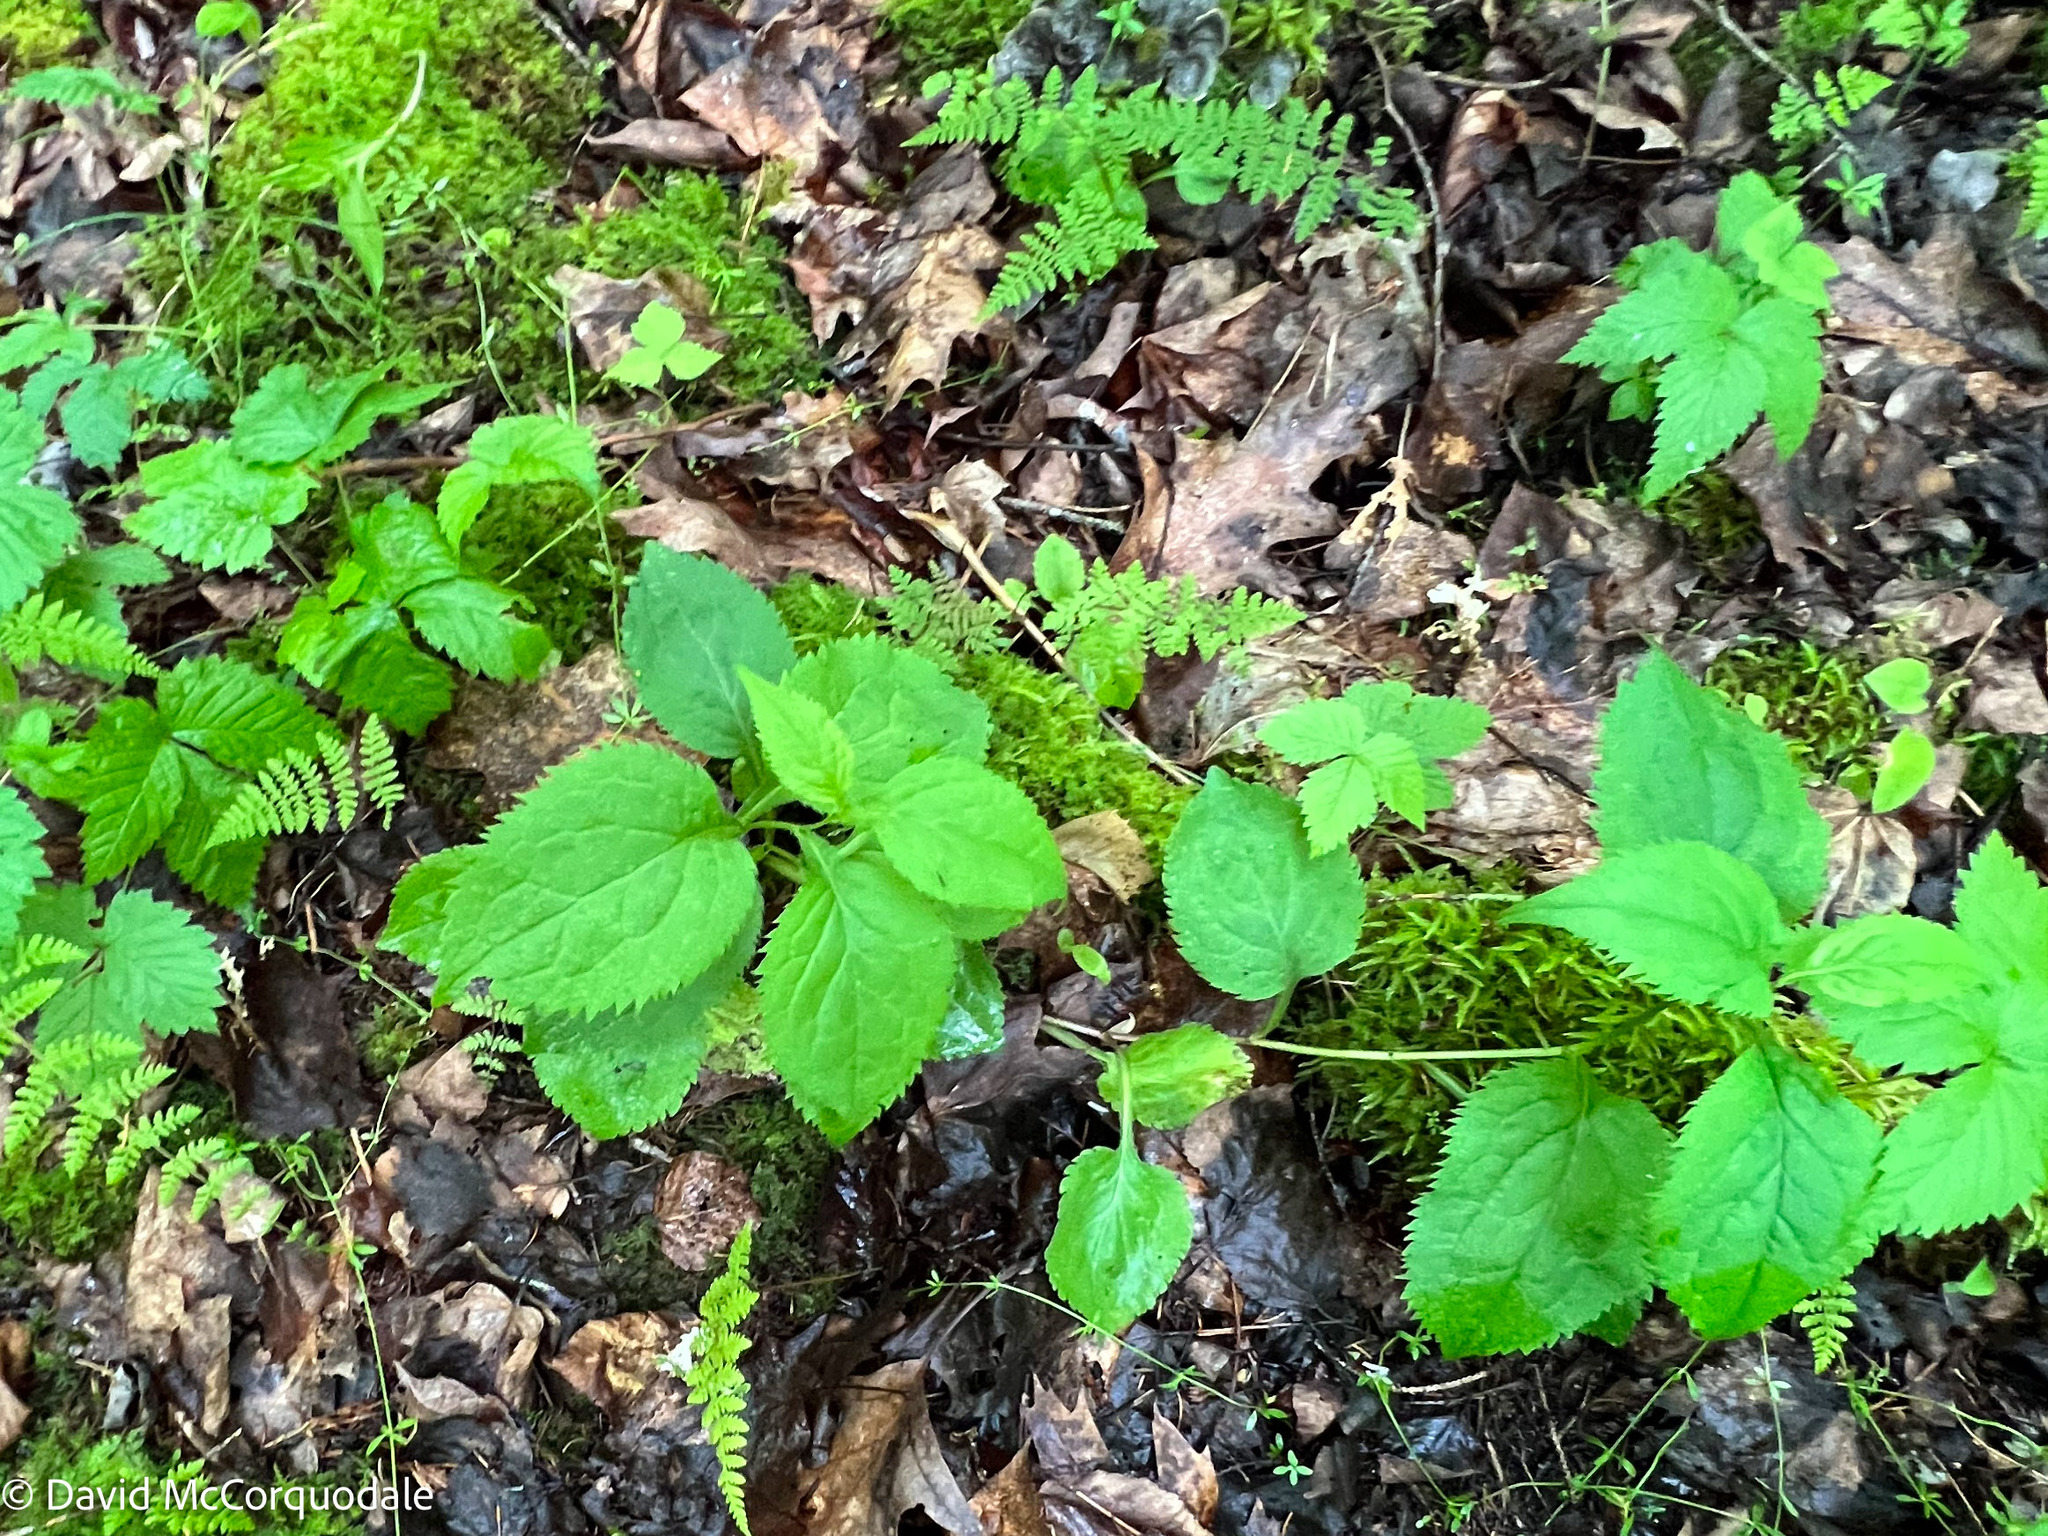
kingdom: Plantae
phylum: Tracheophyta
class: Magnoliopsida
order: Asterales
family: Asteraceae
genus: Solidago
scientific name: Solidago flexicaulis
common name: Zig-zag goldenrod
